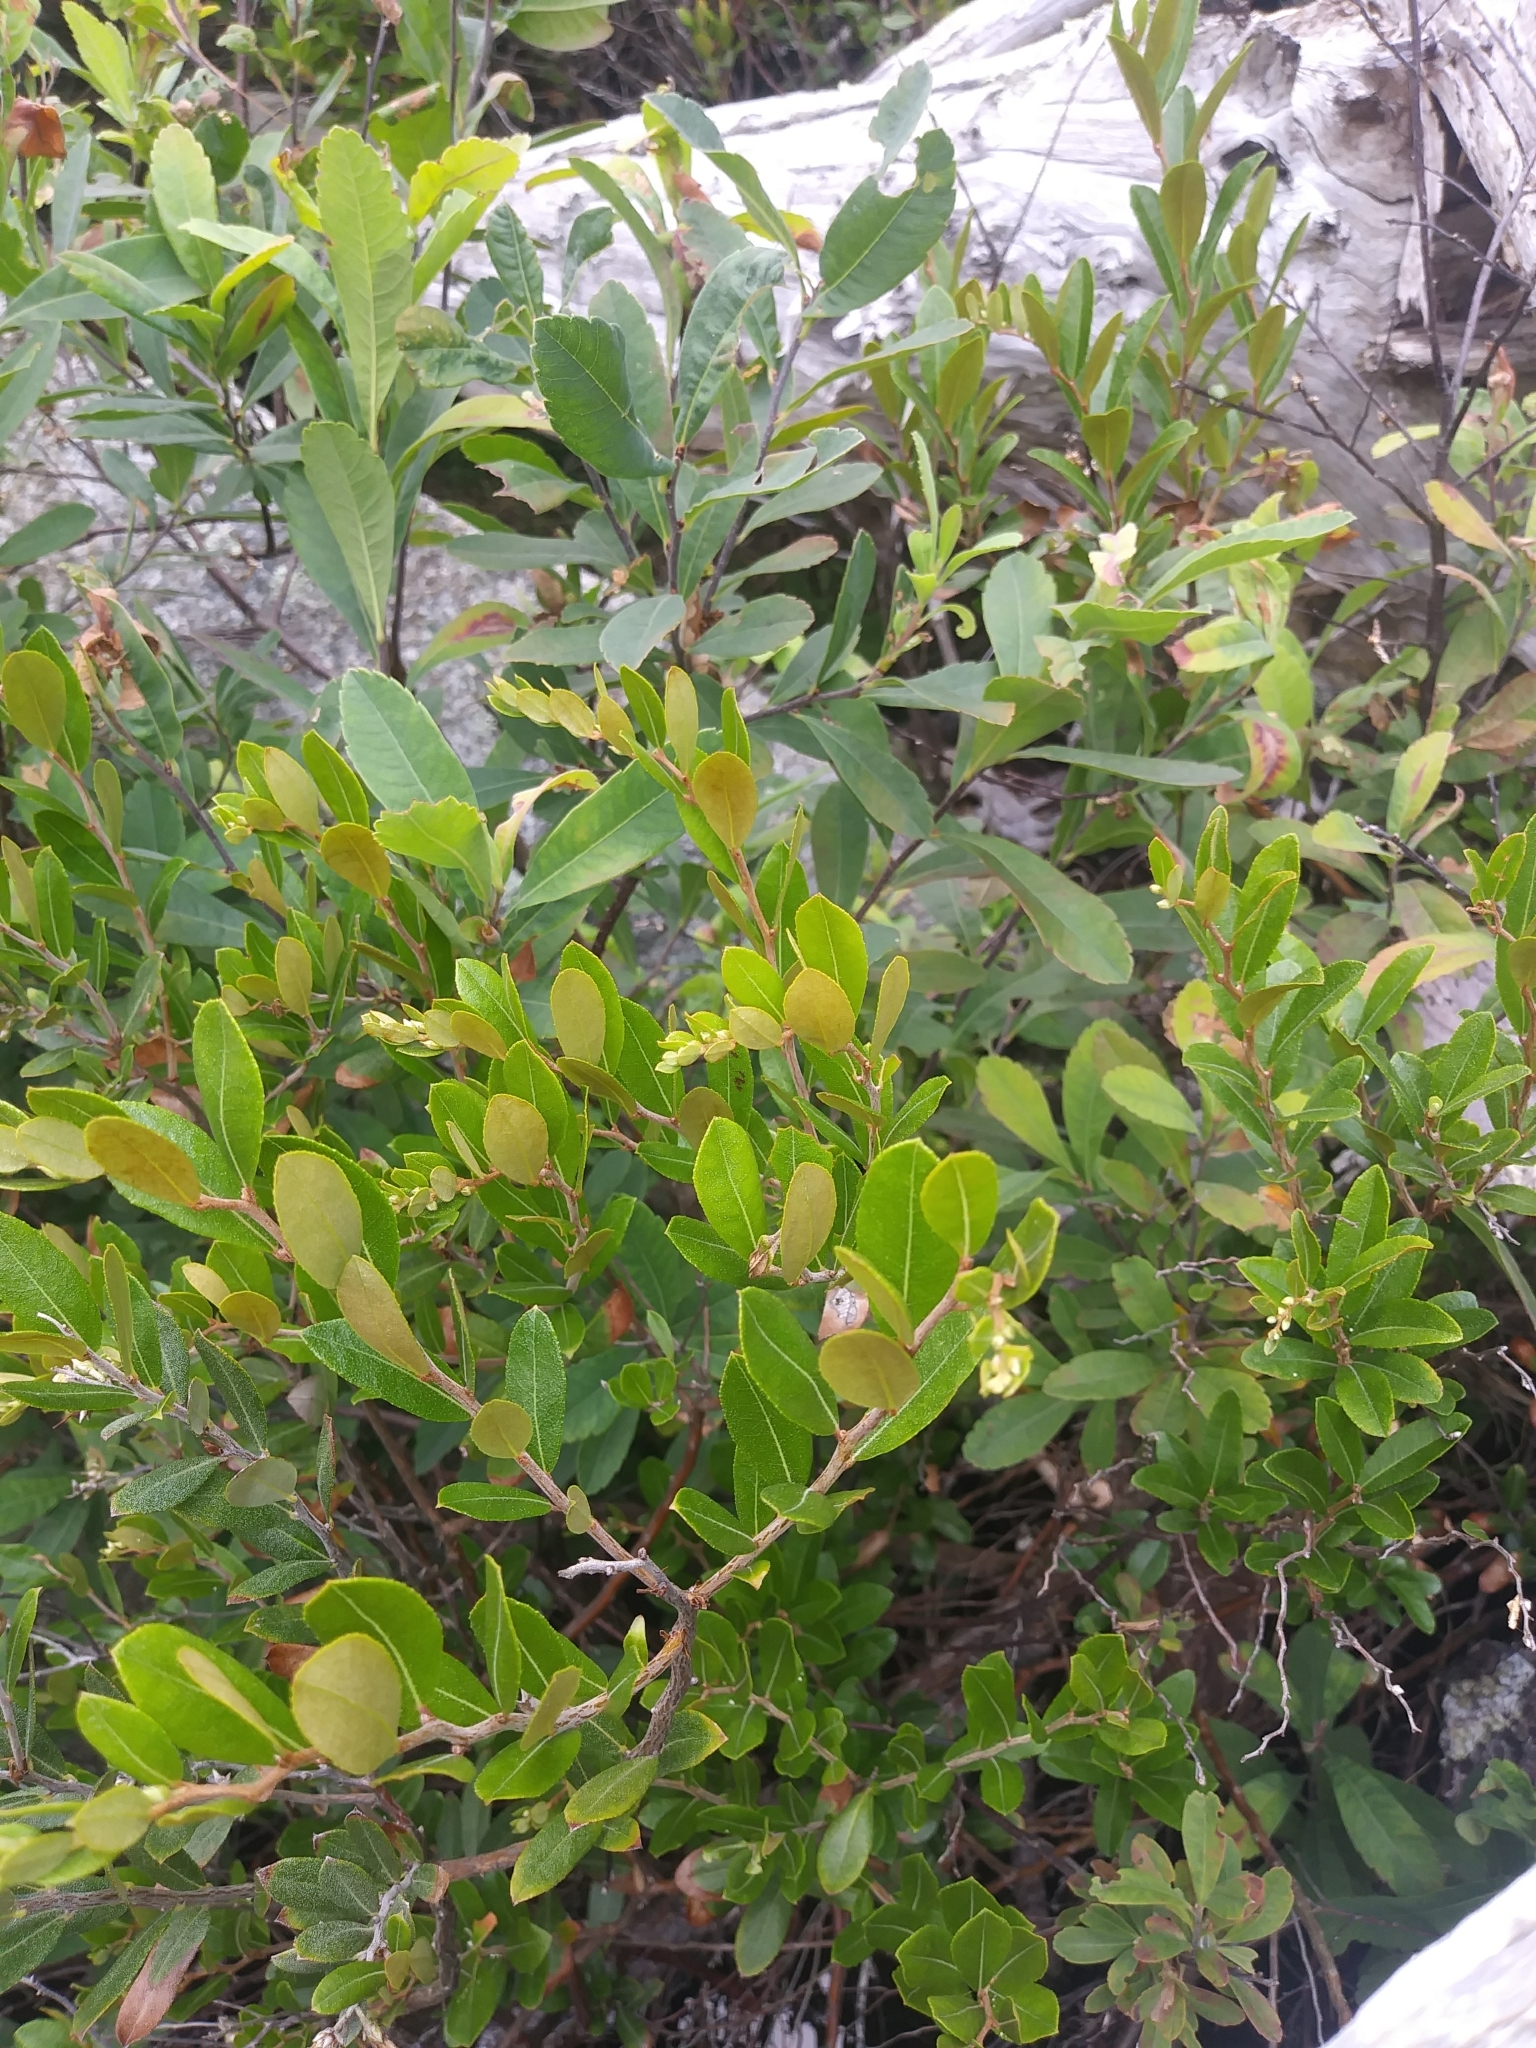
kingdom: Plantae
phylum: Tracheophyta
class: Magnoliopsida
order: Ericales
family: Ericaceae
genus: Chamaedaphne
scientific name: Chamaedaphne calyculata
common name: Leatherleaf
